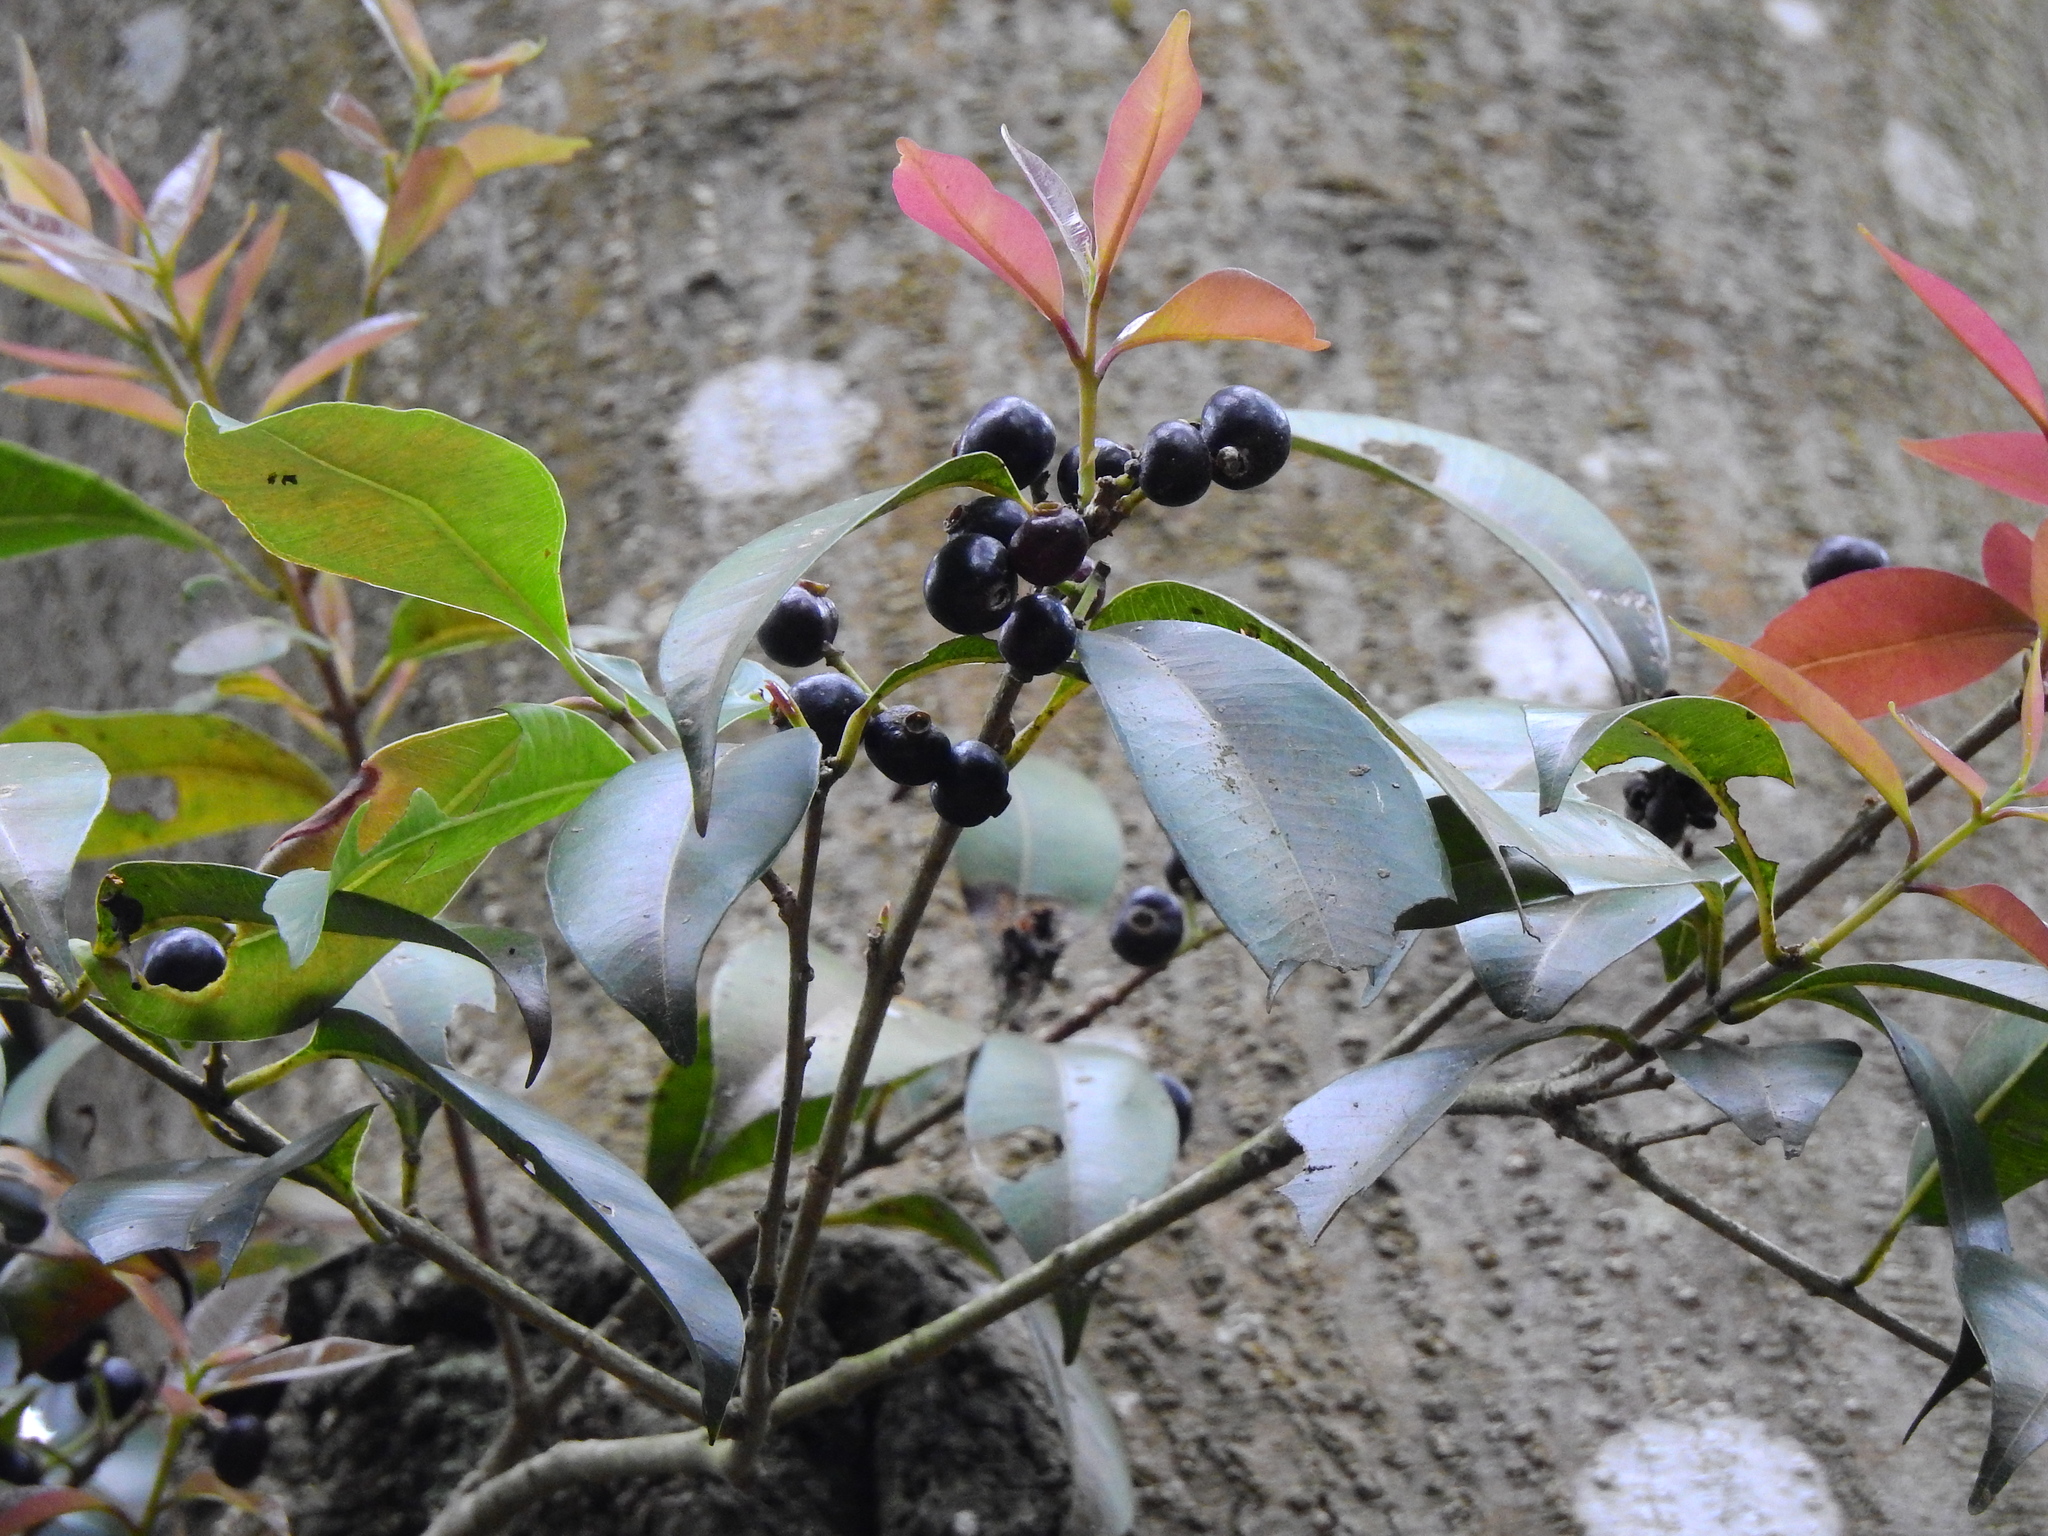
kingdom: Plantae
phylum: Tracheophyta
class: Magnoliopsida
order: Myrtales
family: Myrtaceae
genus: Syzygium
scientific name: Syzygium formosanum
